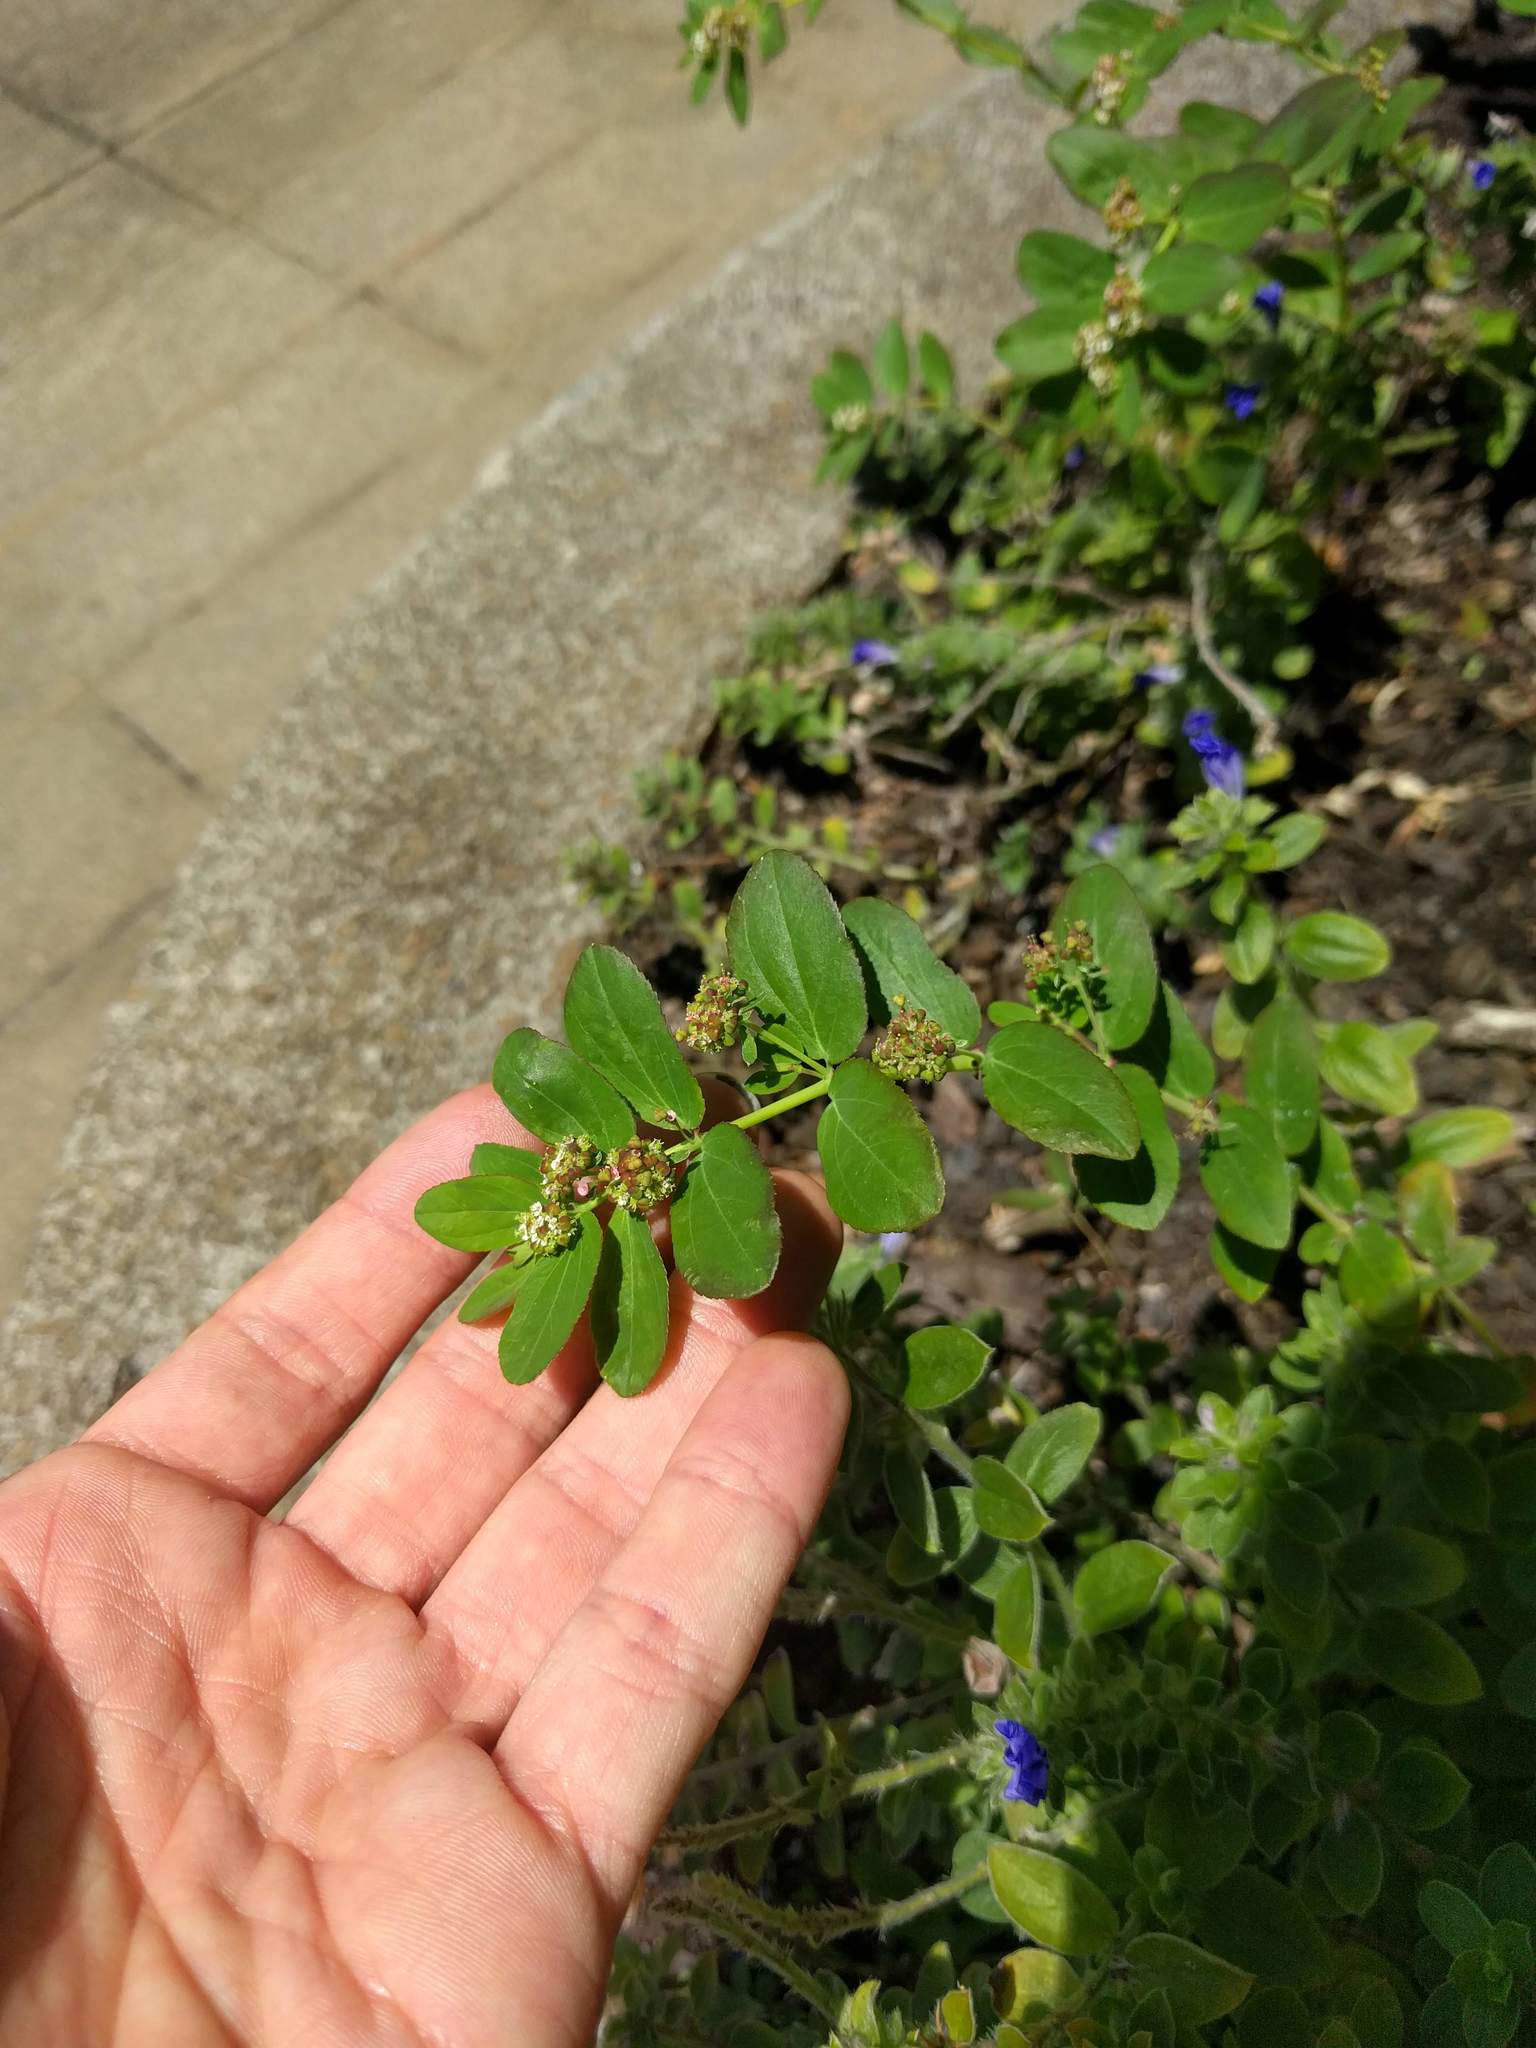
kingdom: Plantae
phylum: Tracheophyta
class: Magnoliopsida
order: Malpighiales
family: Euphorbiaceae
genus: Euphorbia
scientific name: Euphorbia hypericifolia
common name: Graceful sandmat
